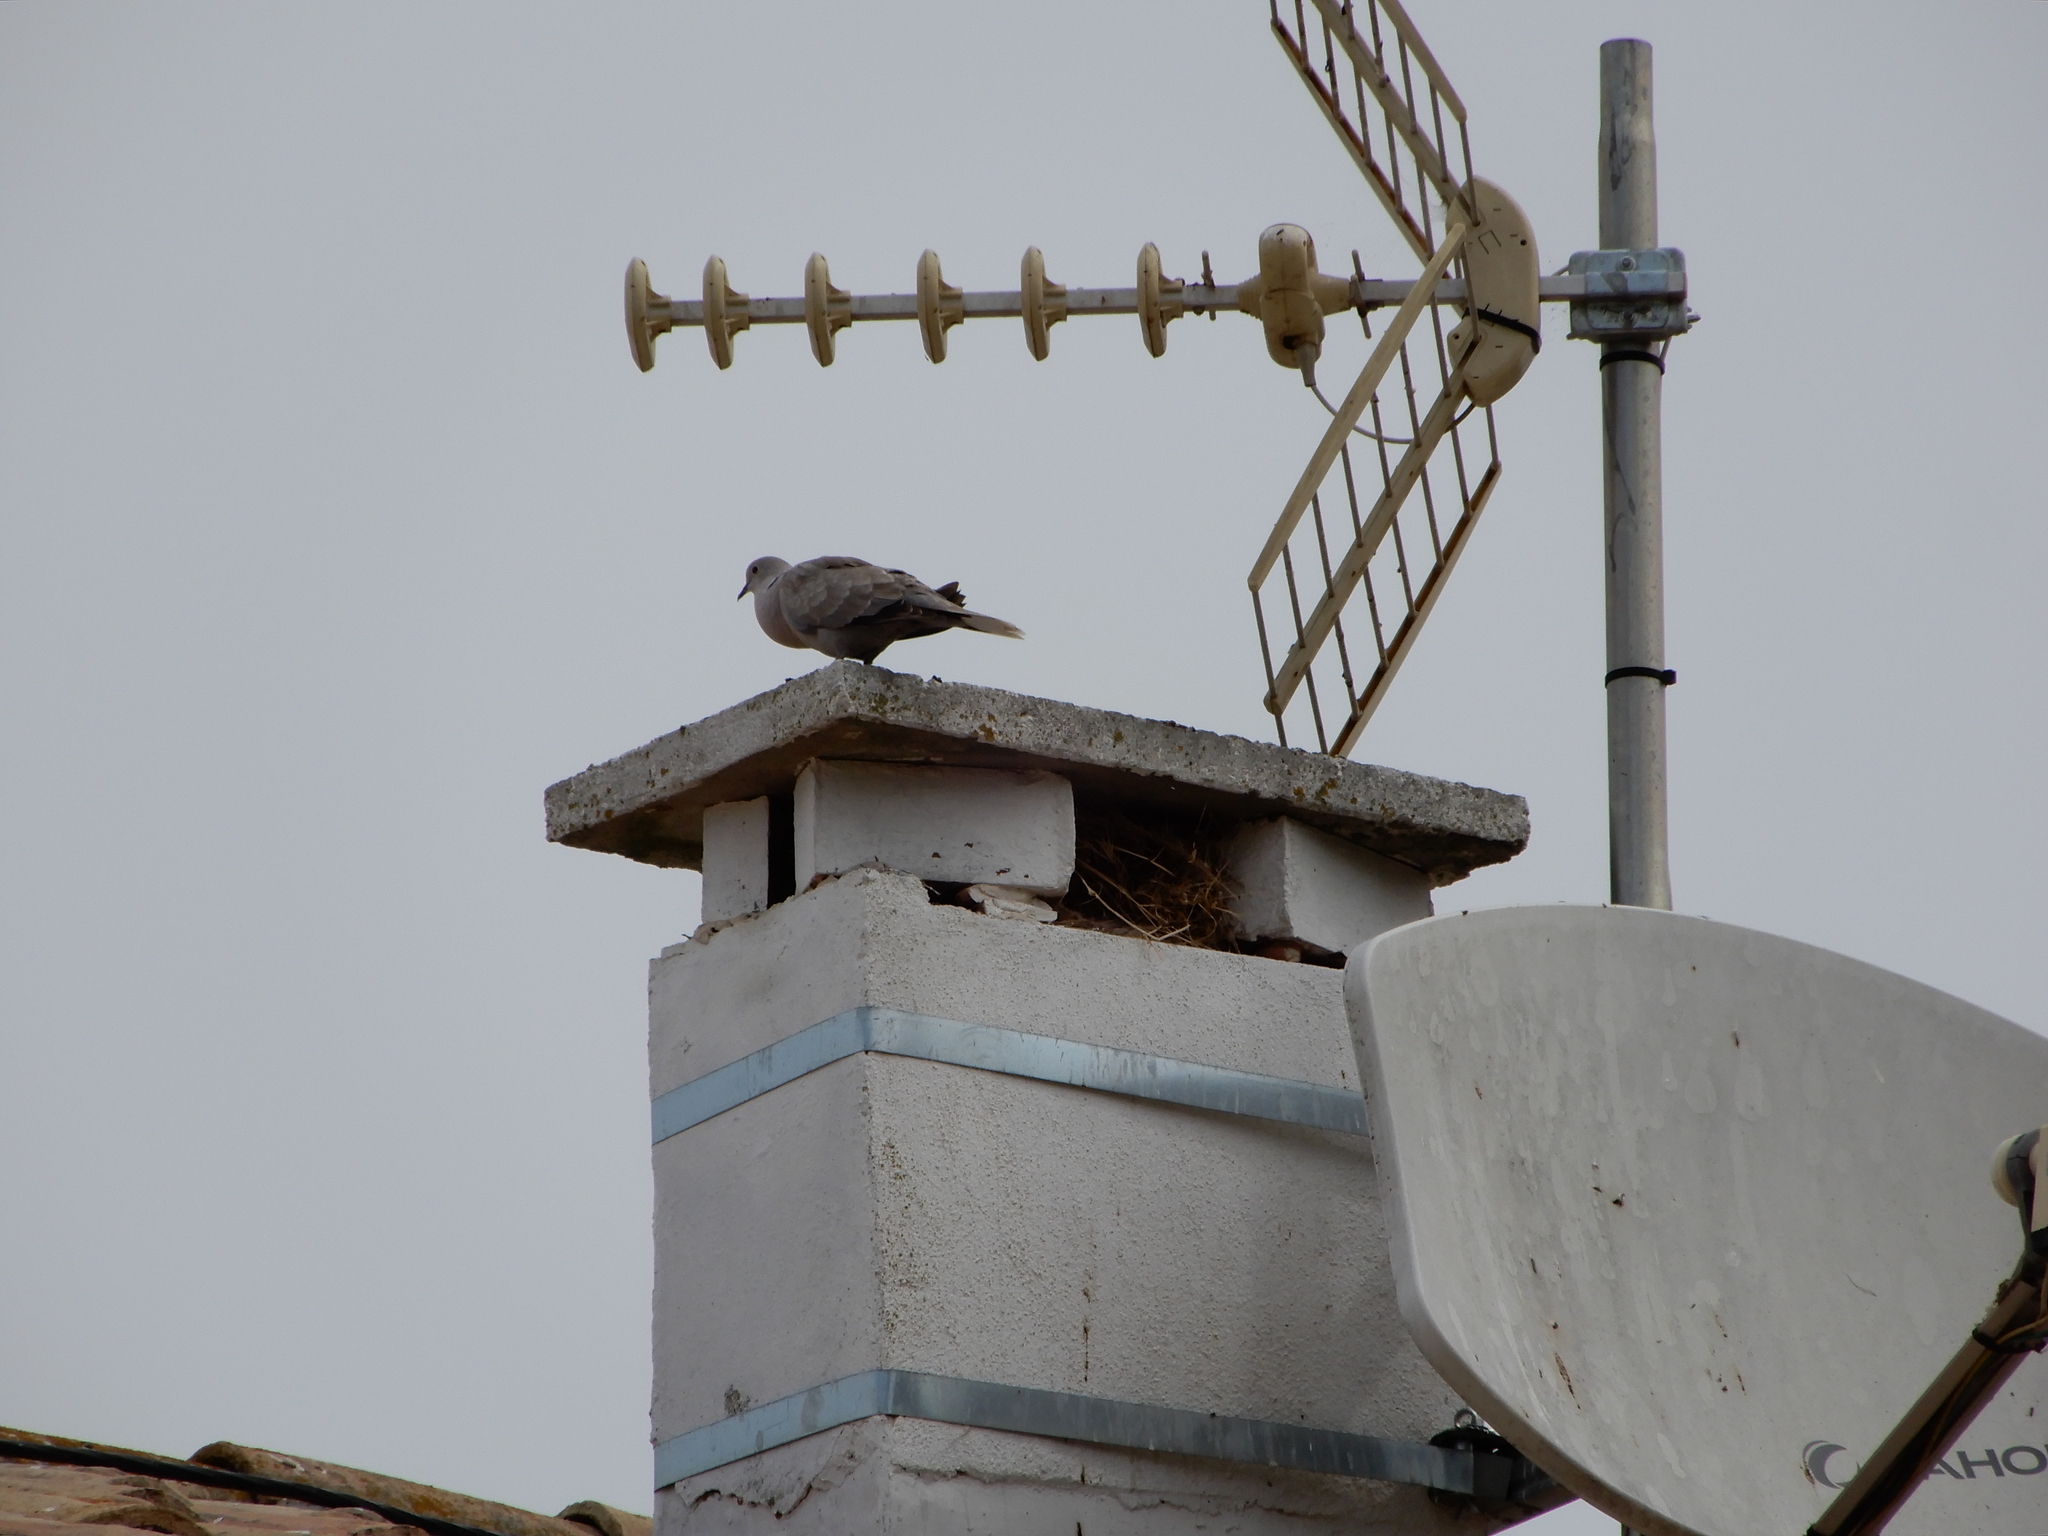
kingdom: Animalia
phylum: Chordata
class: Aves
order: Columbiformes
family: Columbidae
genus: Streptopelia
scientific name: Streptopelia decaocto
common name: Eurasian collared dove
